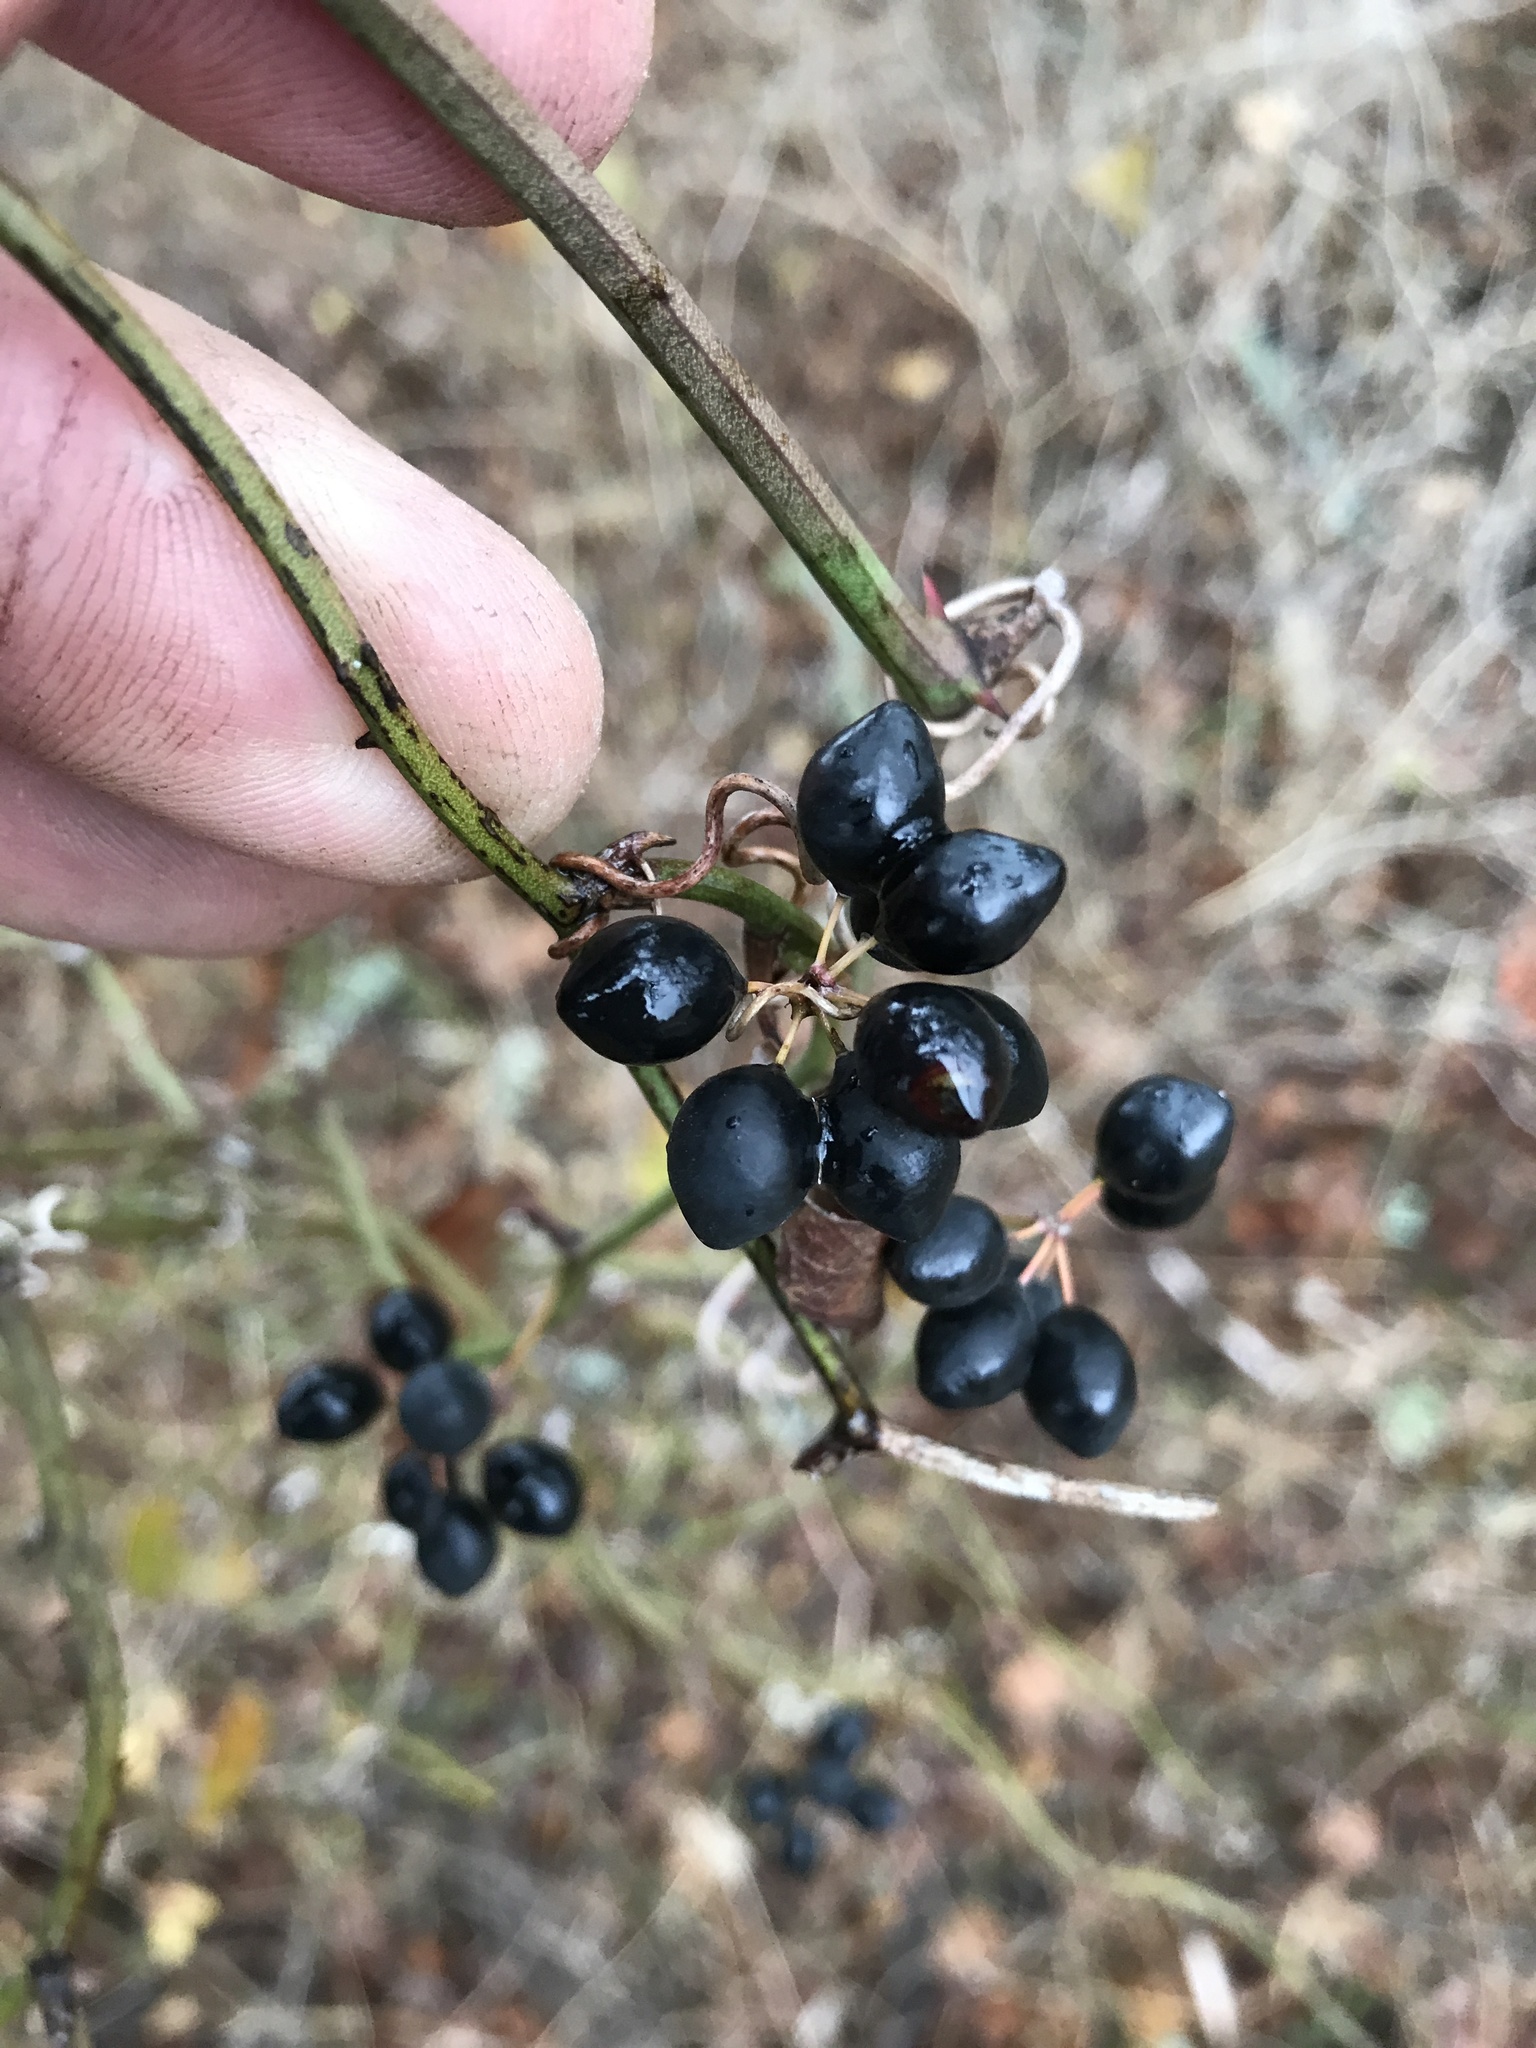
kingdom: Plantae
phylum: Tracheophyta
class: Liliopsida
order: Liliales
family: Smilacaceae
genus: Smilax
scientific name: Smilax bona-nox
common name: Catbrier
